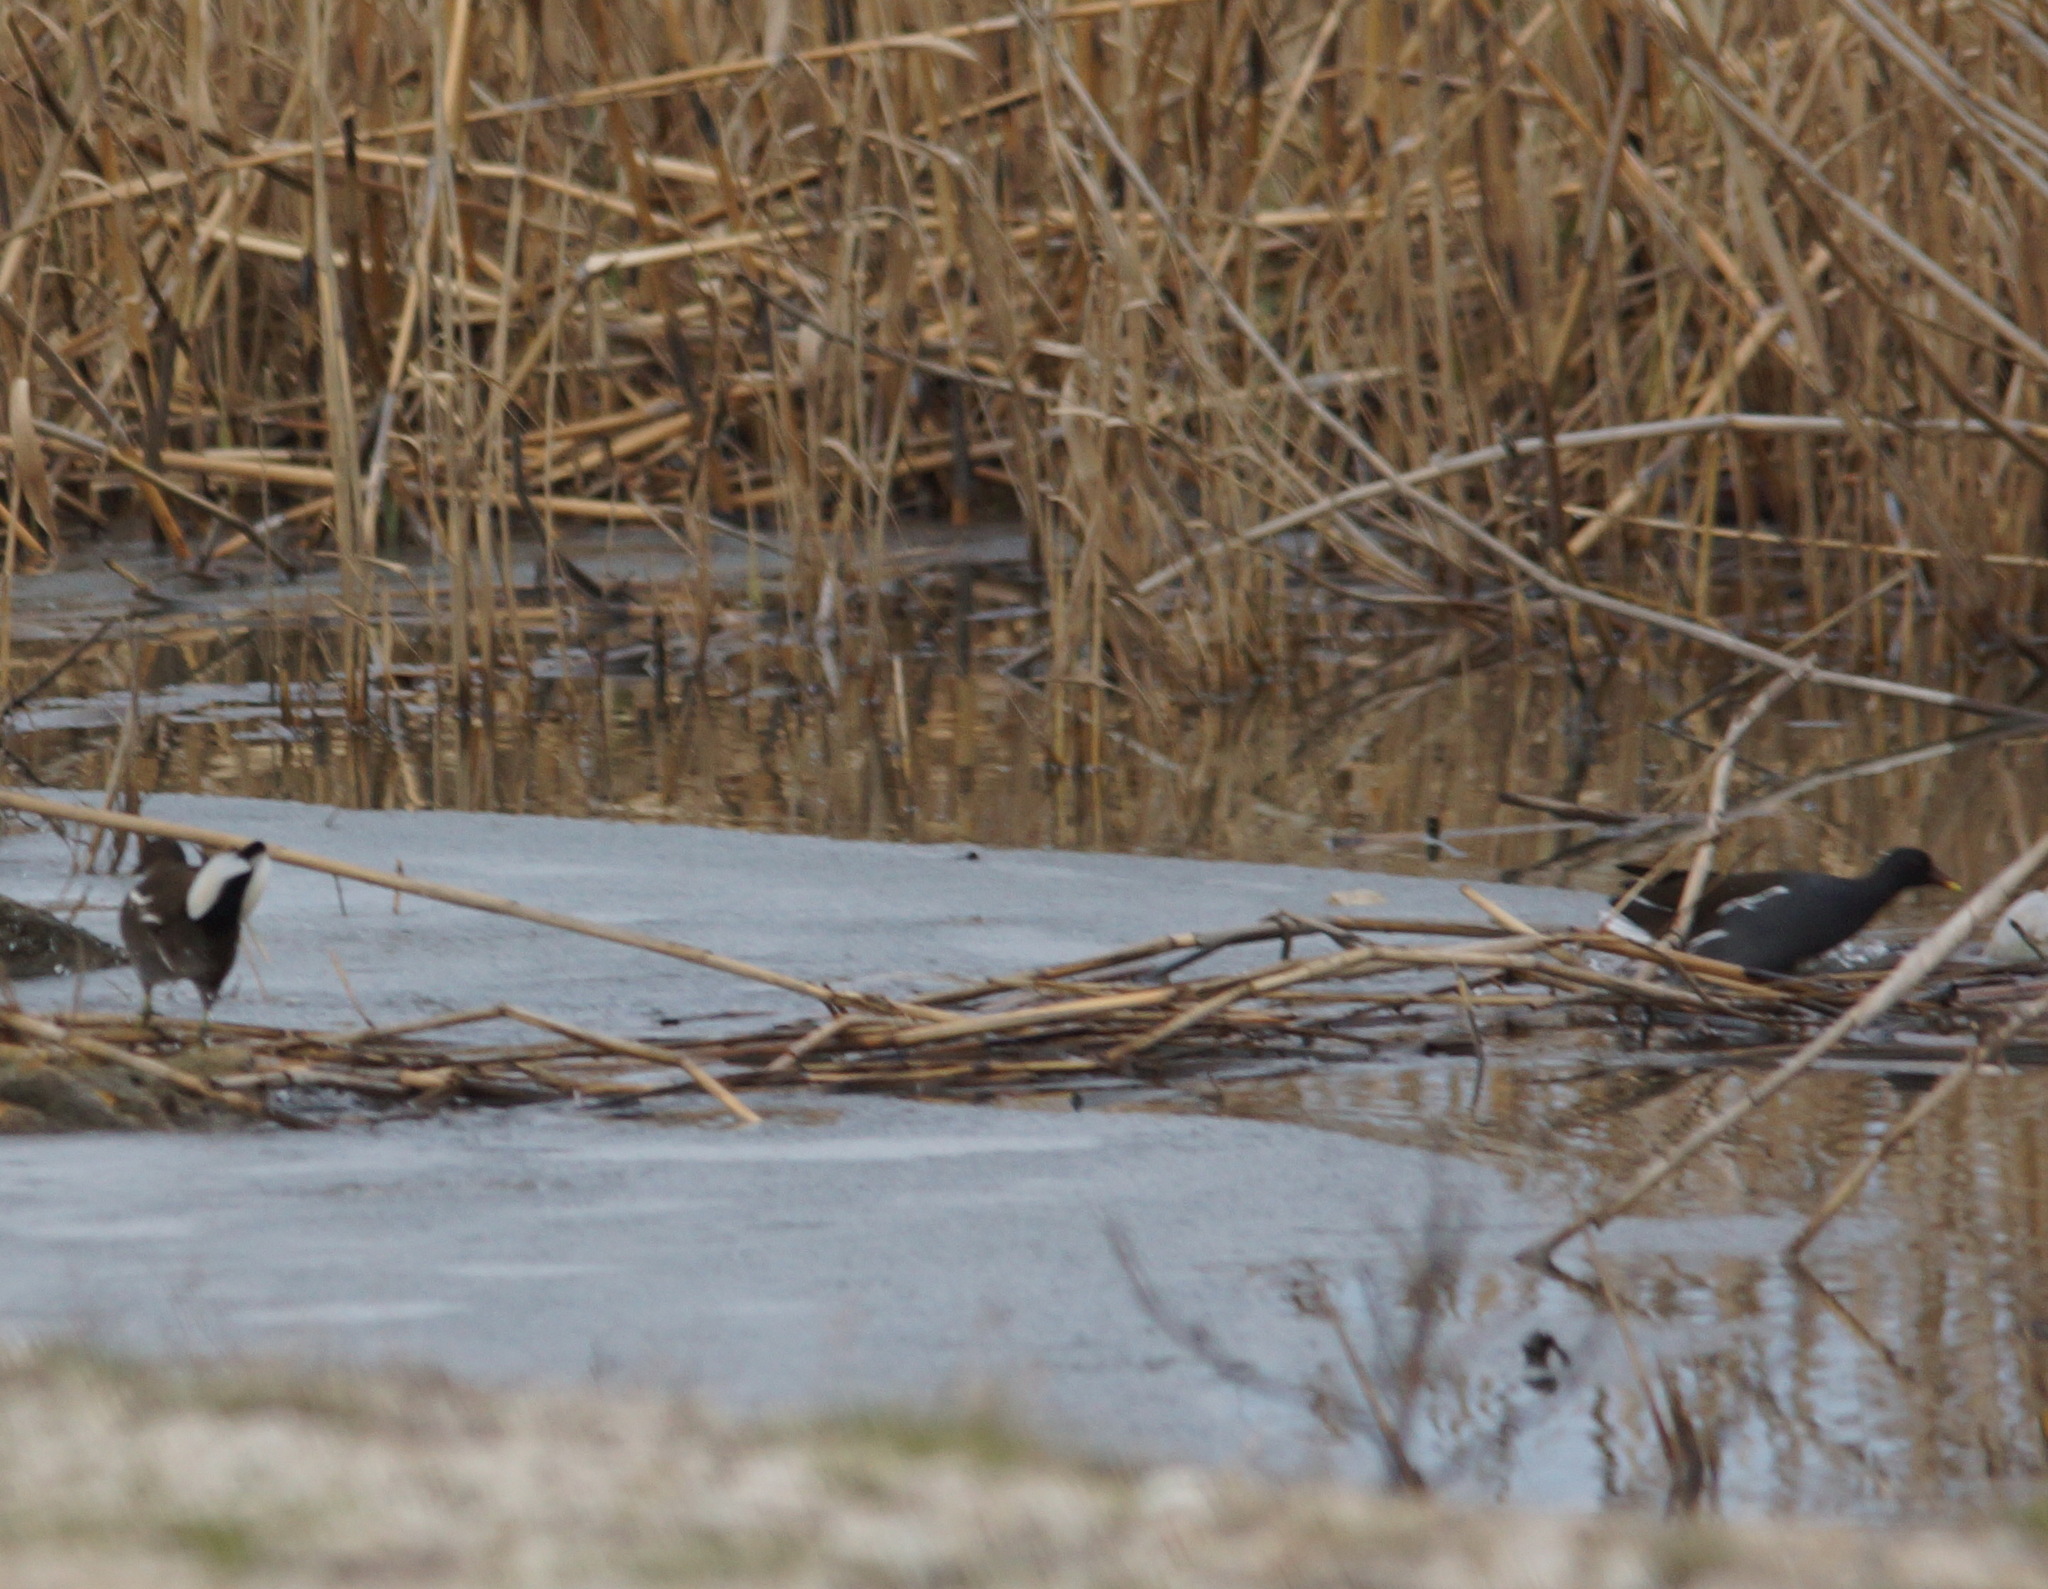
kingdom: Animalia
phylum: Chordata
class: Aves
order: Gruiformes
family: Rallidae
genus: Gallinula
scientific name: Gallinula chloropus
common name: Common moorhen
